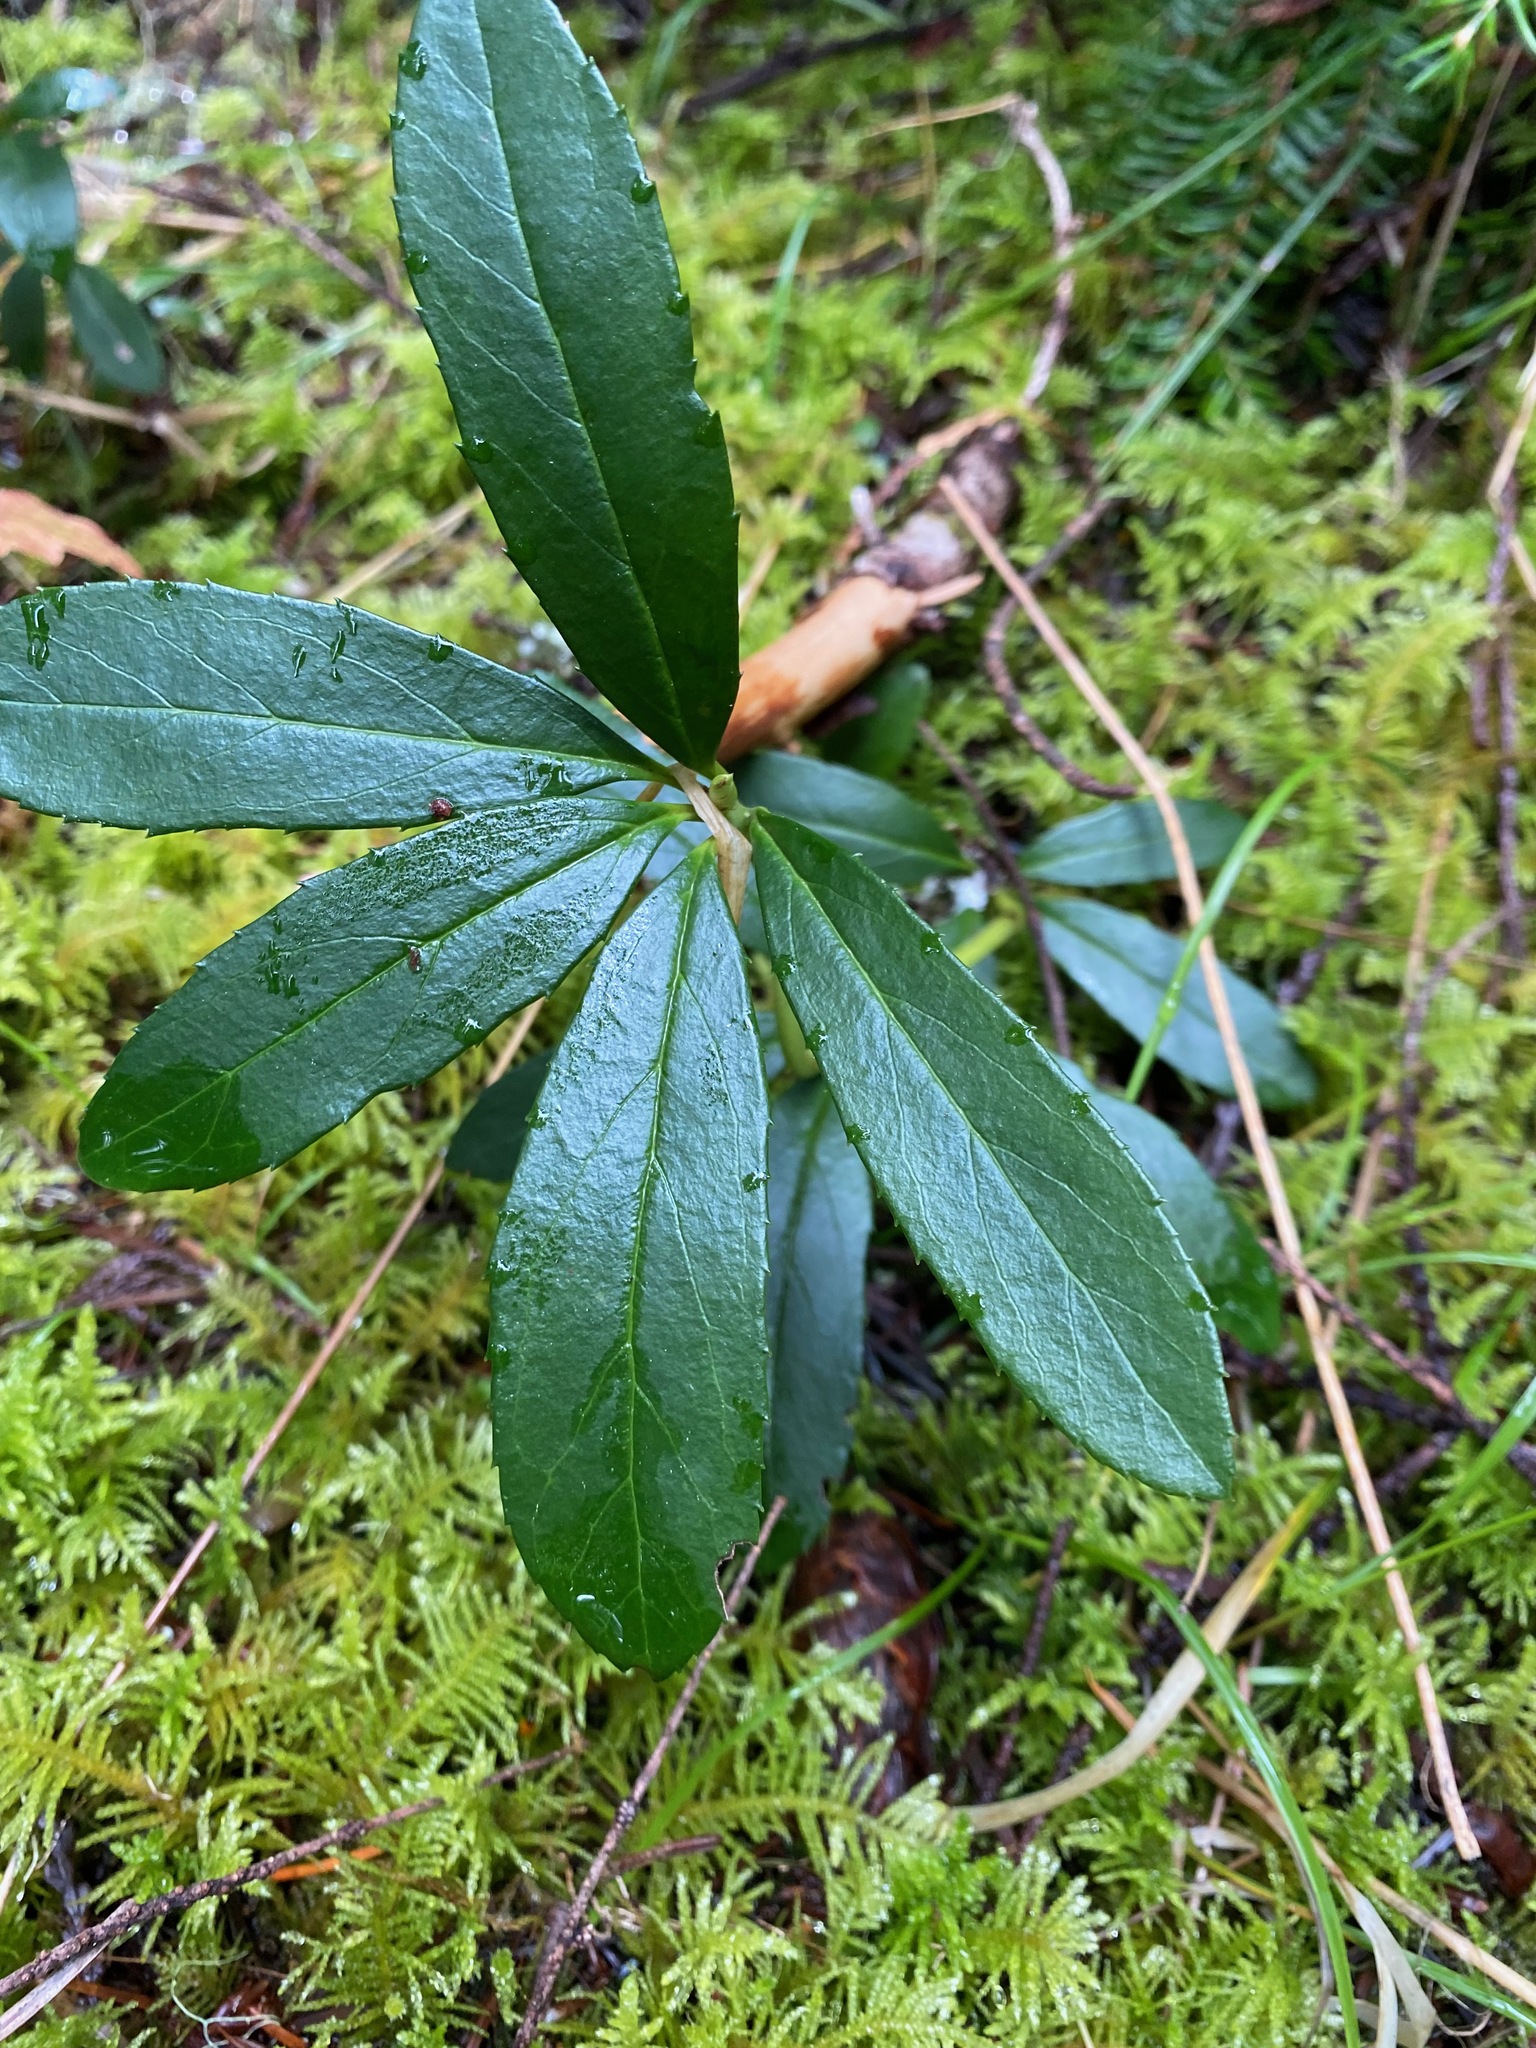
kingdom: Plantae
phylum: Tracheophyta
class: Magnoliopsida
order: Ericales
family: Ericaceae
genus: Chimaphila
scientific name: Chimaphila umbellata
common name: Pipsissewa
